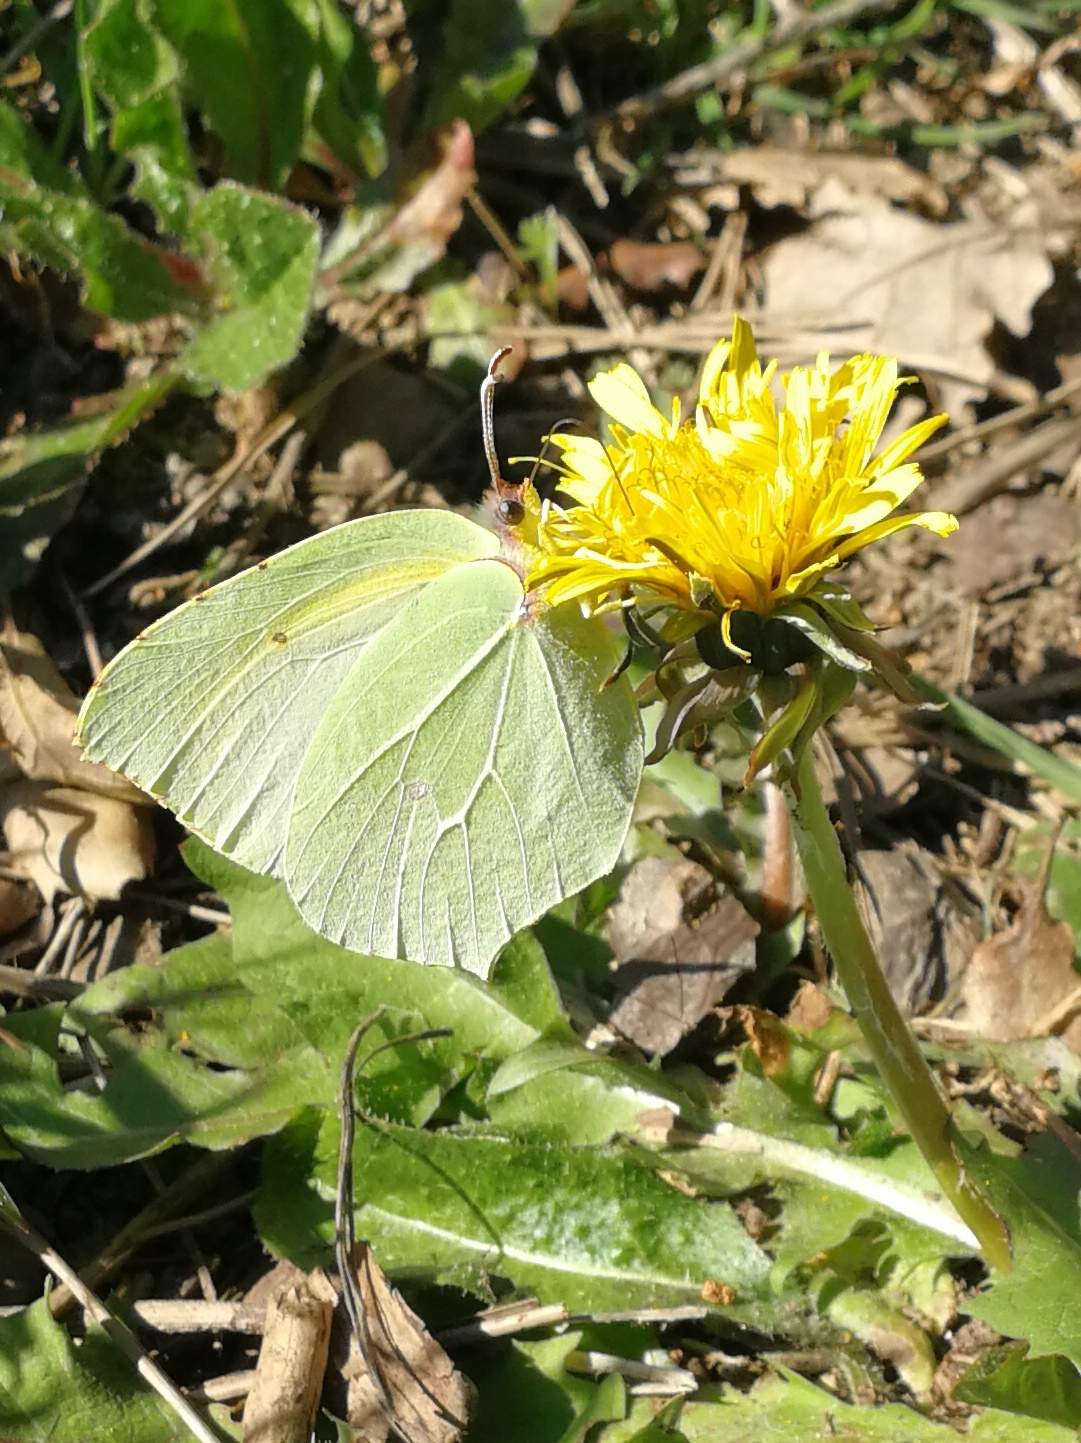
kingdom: Animalia
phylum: Arthropoda
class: Insecta
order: Lepidoptera
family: Pieridae
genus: Gonepteryx
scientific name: Gonepteryx cleopatra
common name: Cleopatra
